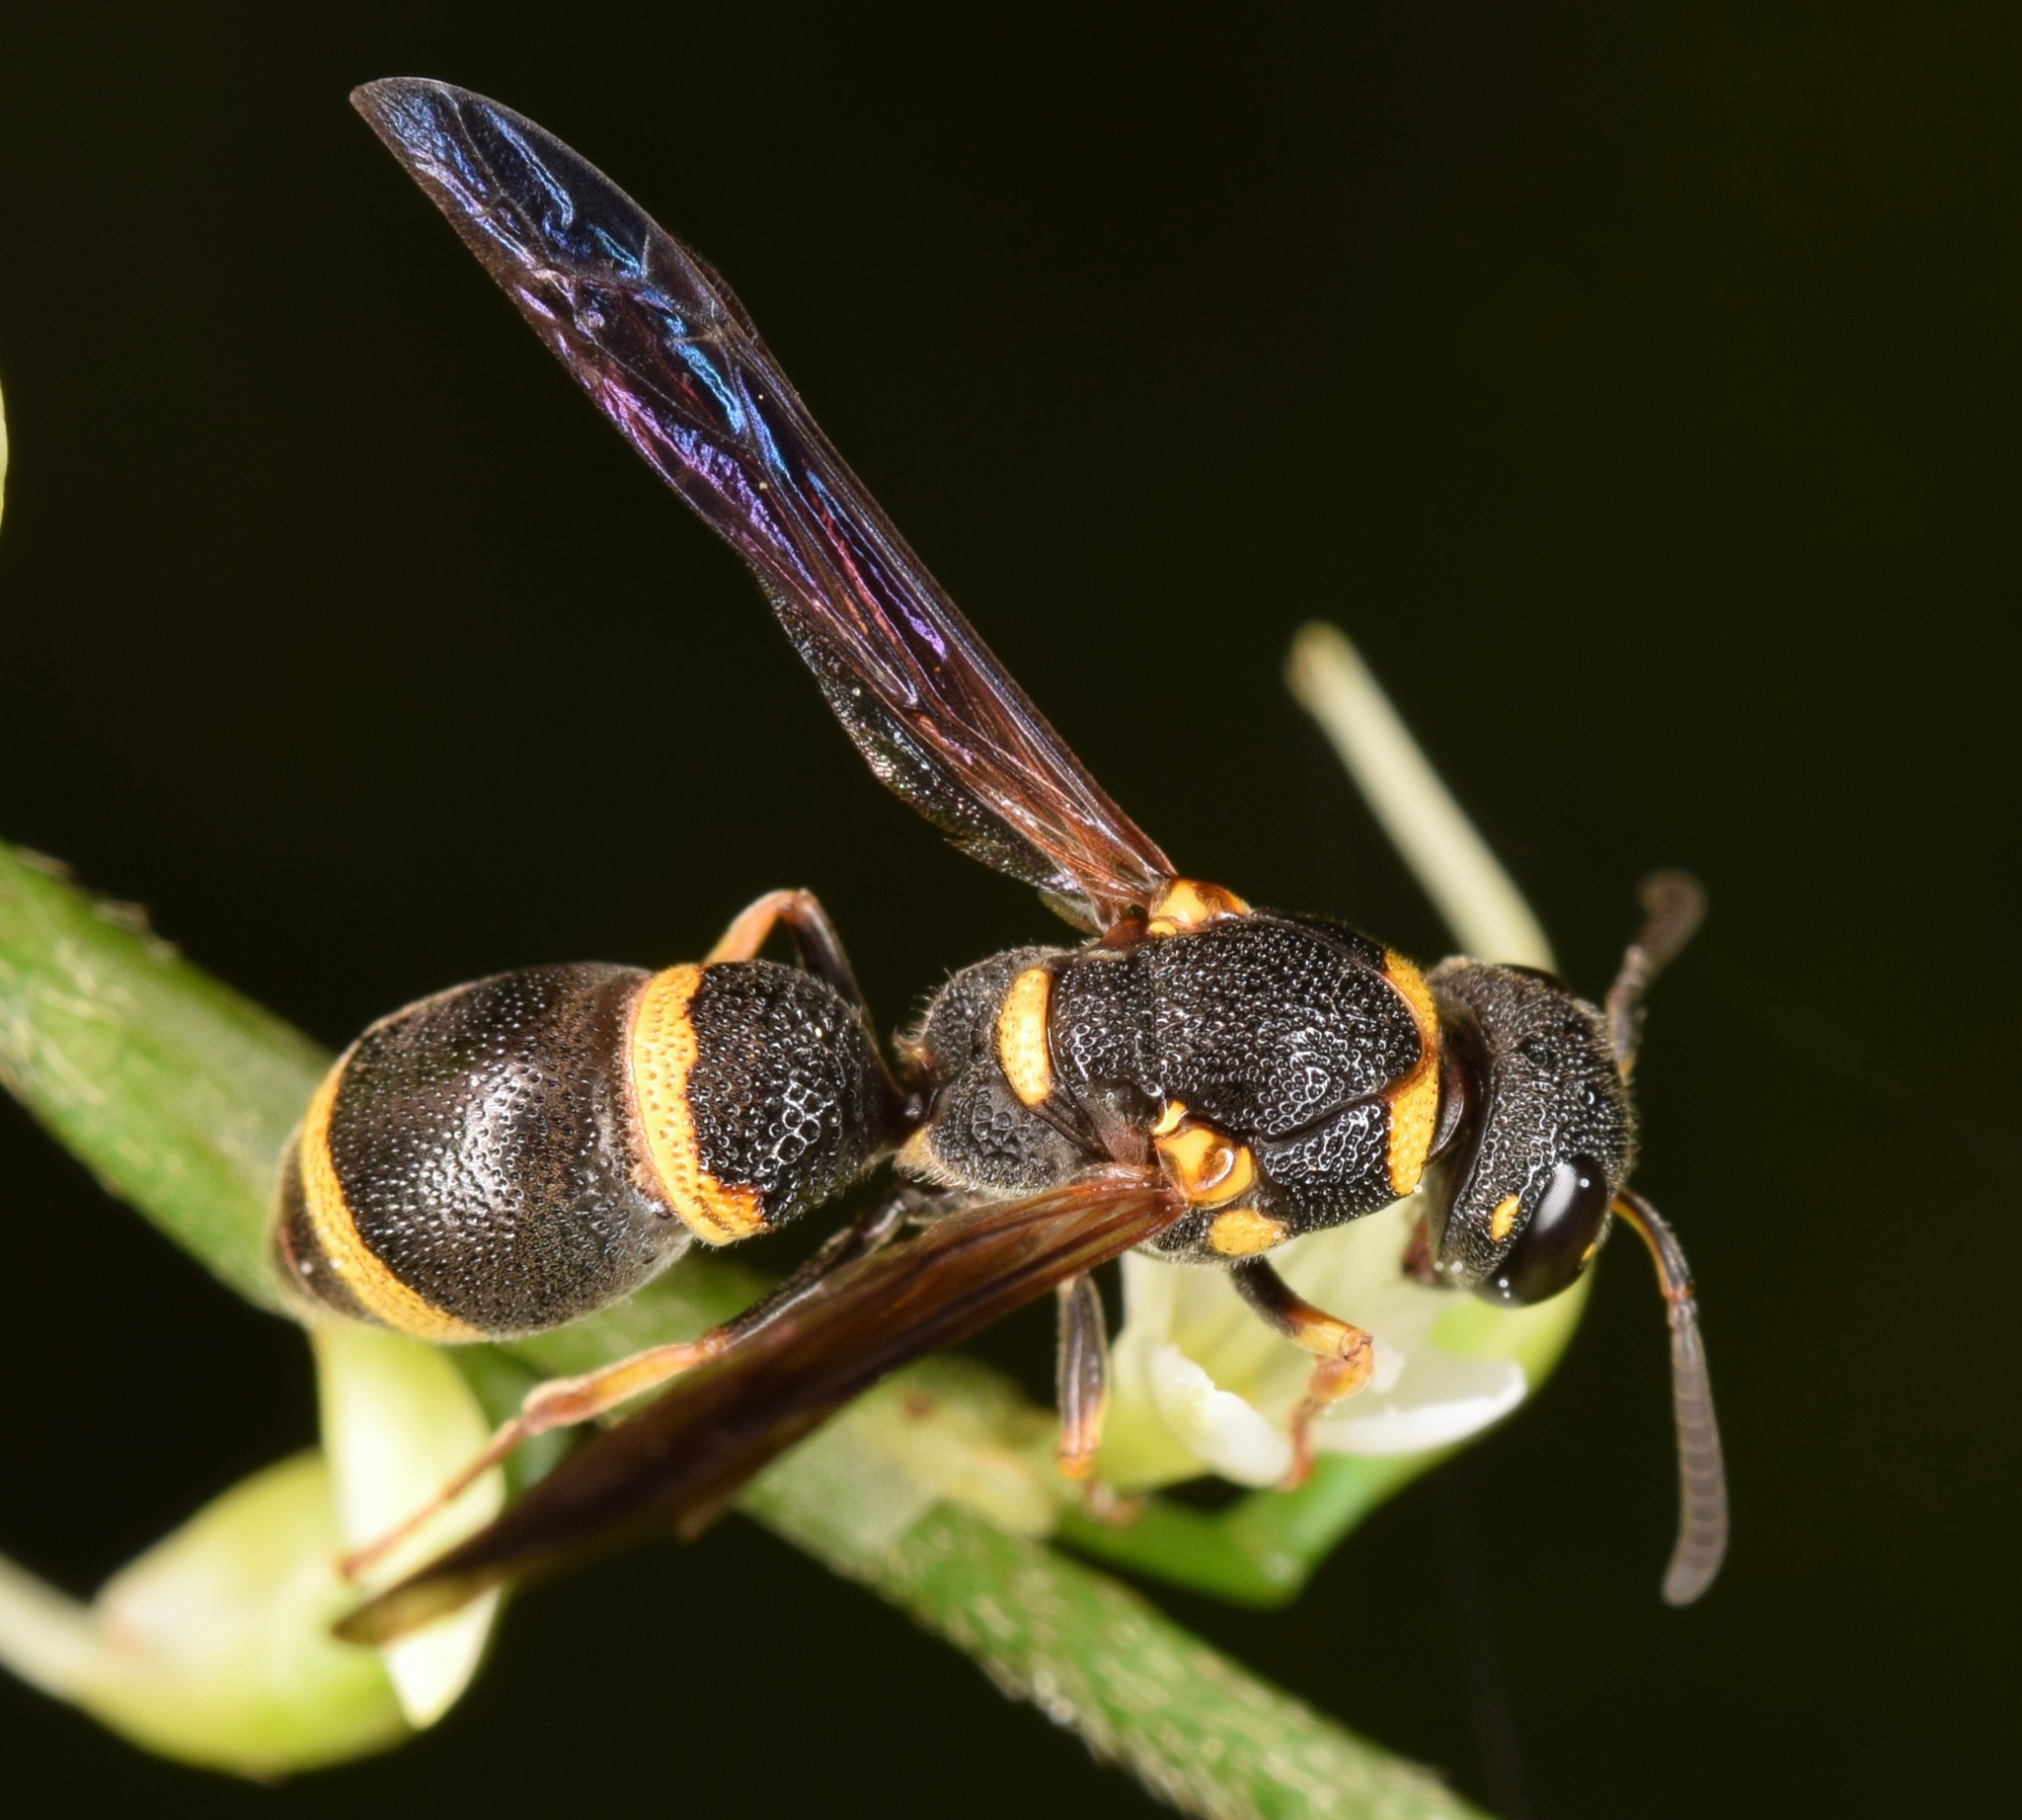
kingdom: Animalia
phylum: Arthropoda
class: Insecta
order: Hymenoptera
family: Eumenidae
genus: Parancistrocerus
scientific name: Parancistrocerus perennis
